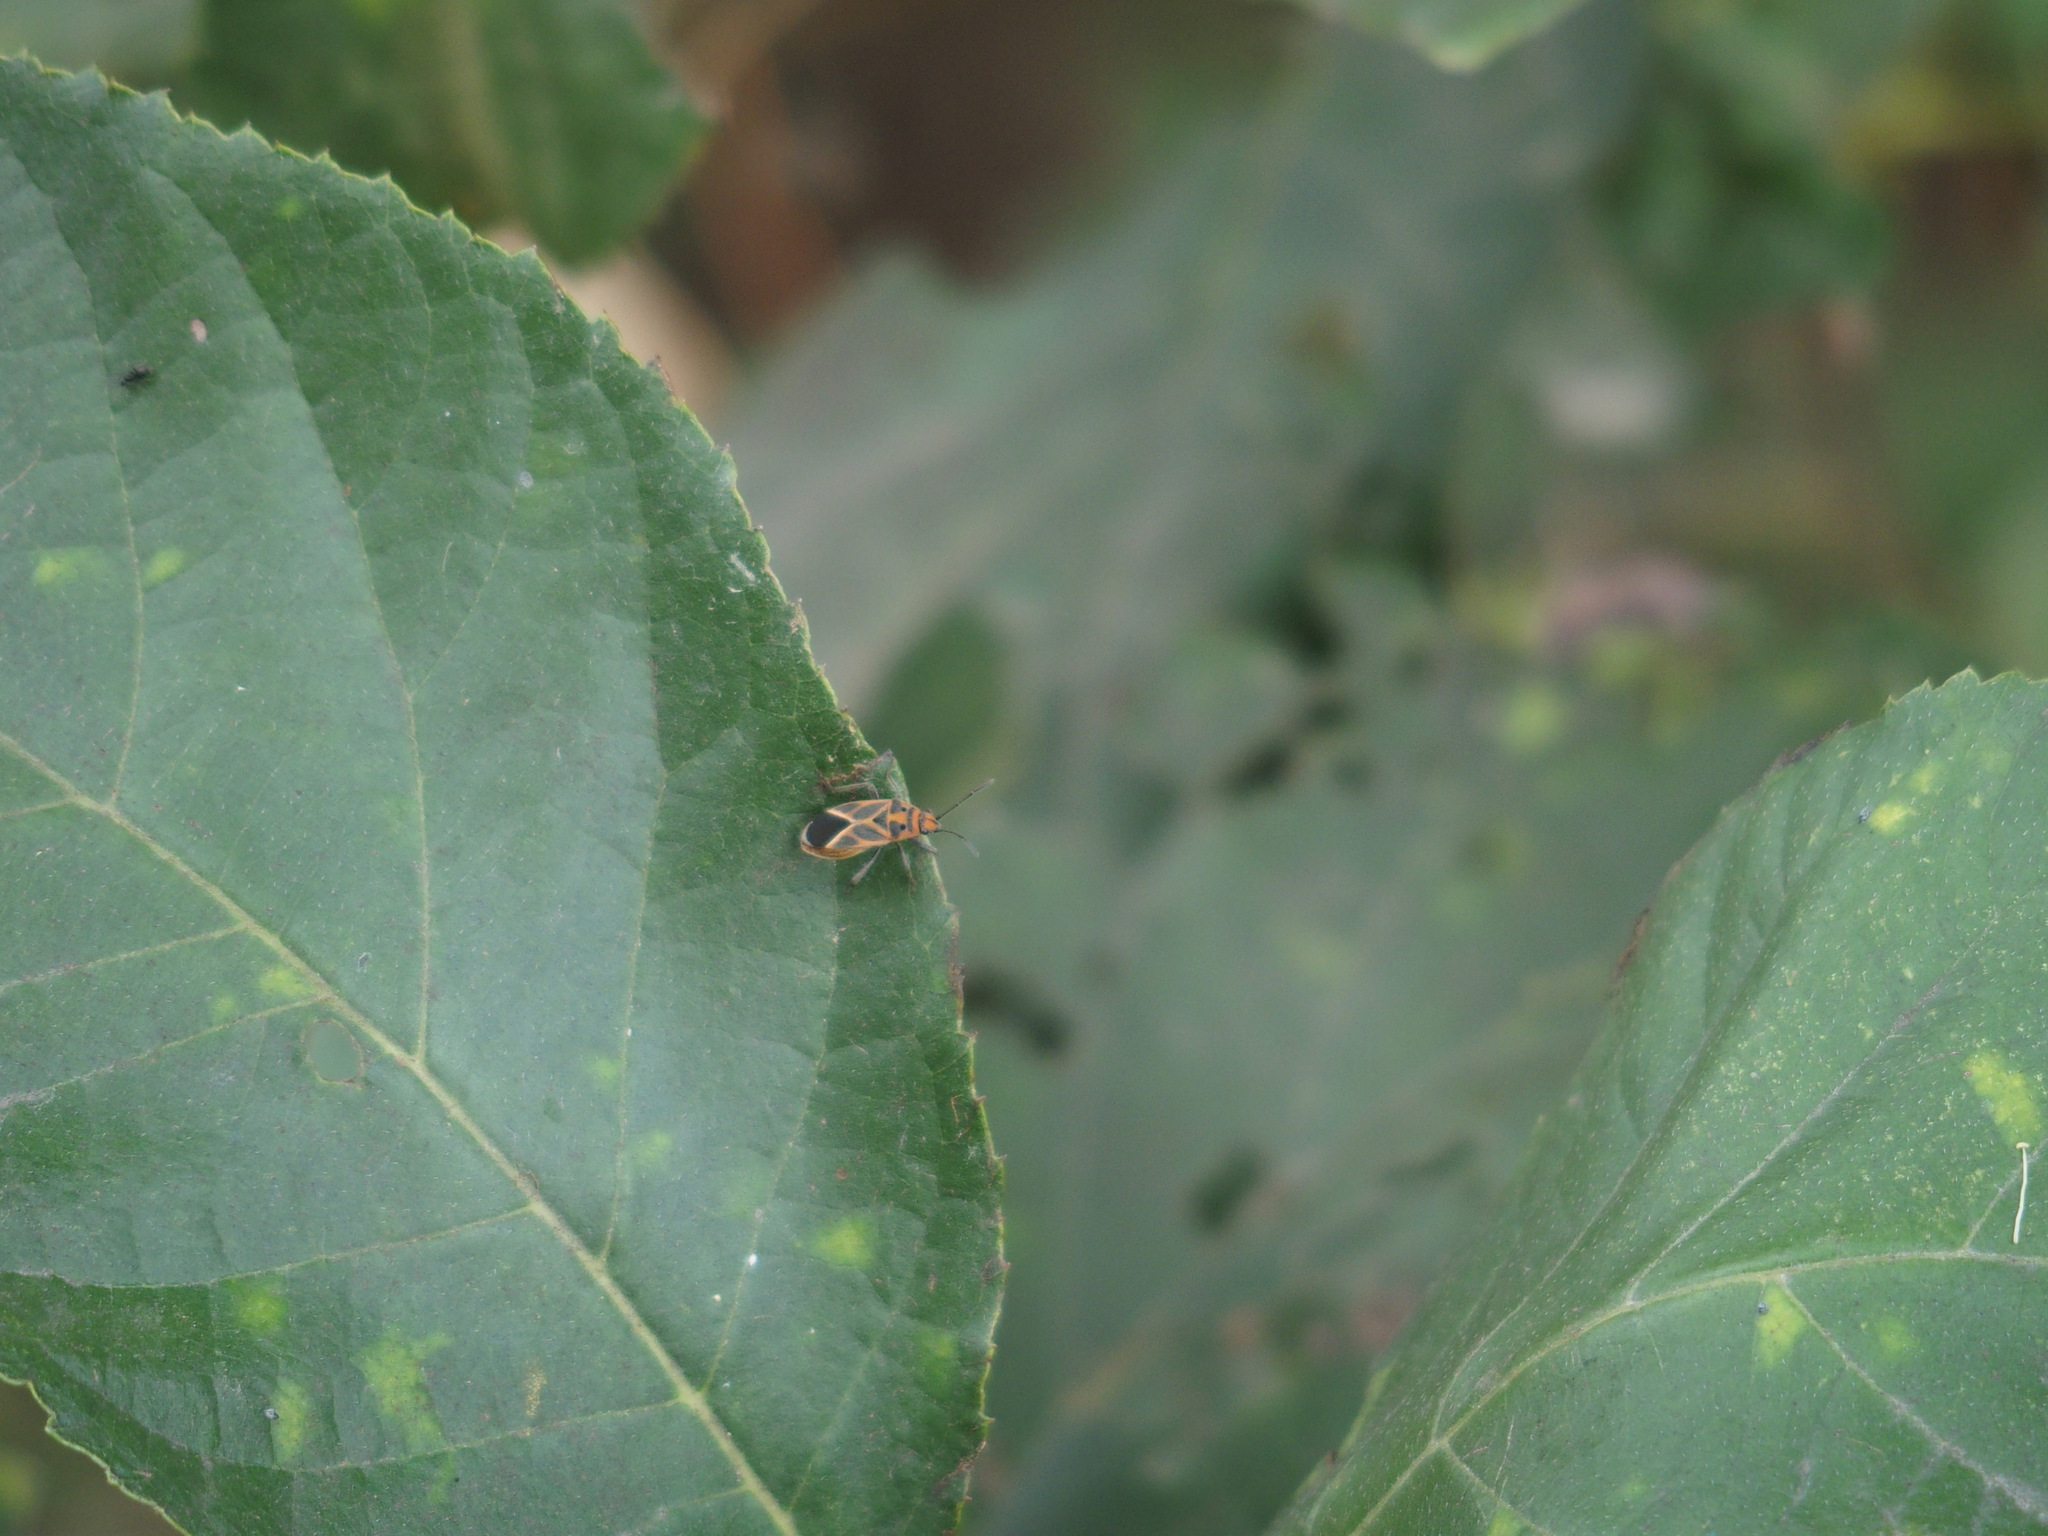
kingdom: Animalia
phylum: Arthropoda
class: Insecta
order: Hemiptera
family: Lygaeidae
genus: Graptostethus
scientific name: Graptostethus servus
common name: Lygaeid bug
